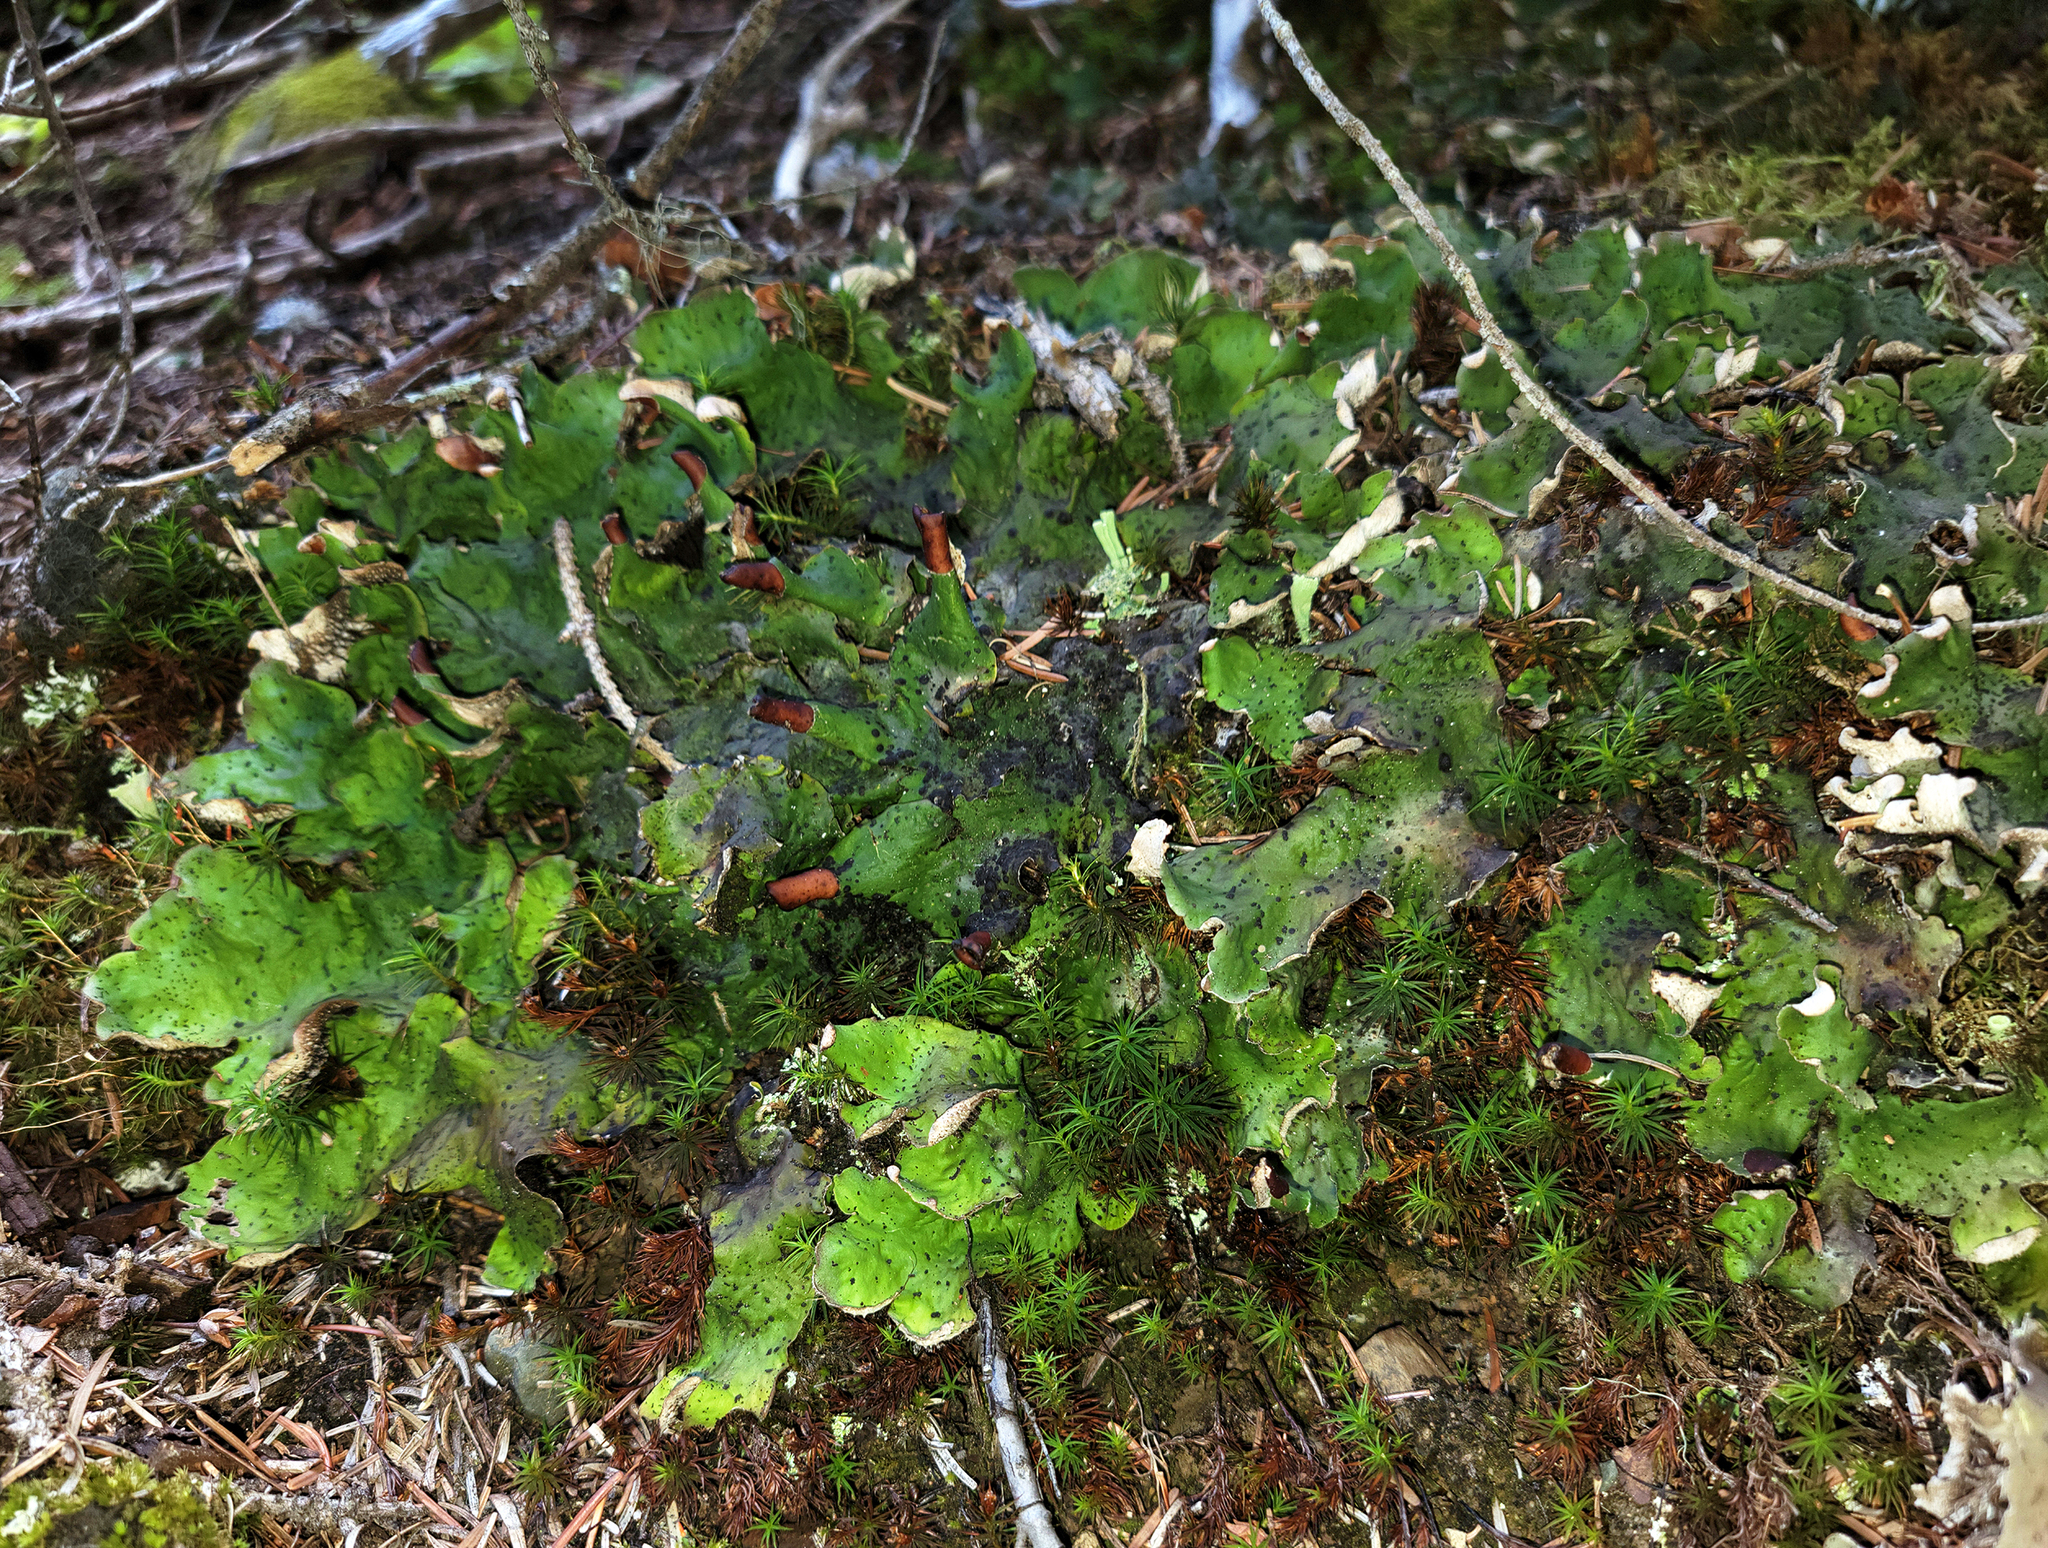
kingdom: Fungi
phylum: Ascomycota
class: Lecanoromycetes
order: Peltigerales
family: Peltigeraceae
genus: Peltigera
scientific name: Peltigera aphthosa
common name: Common freckle pelt lichen
